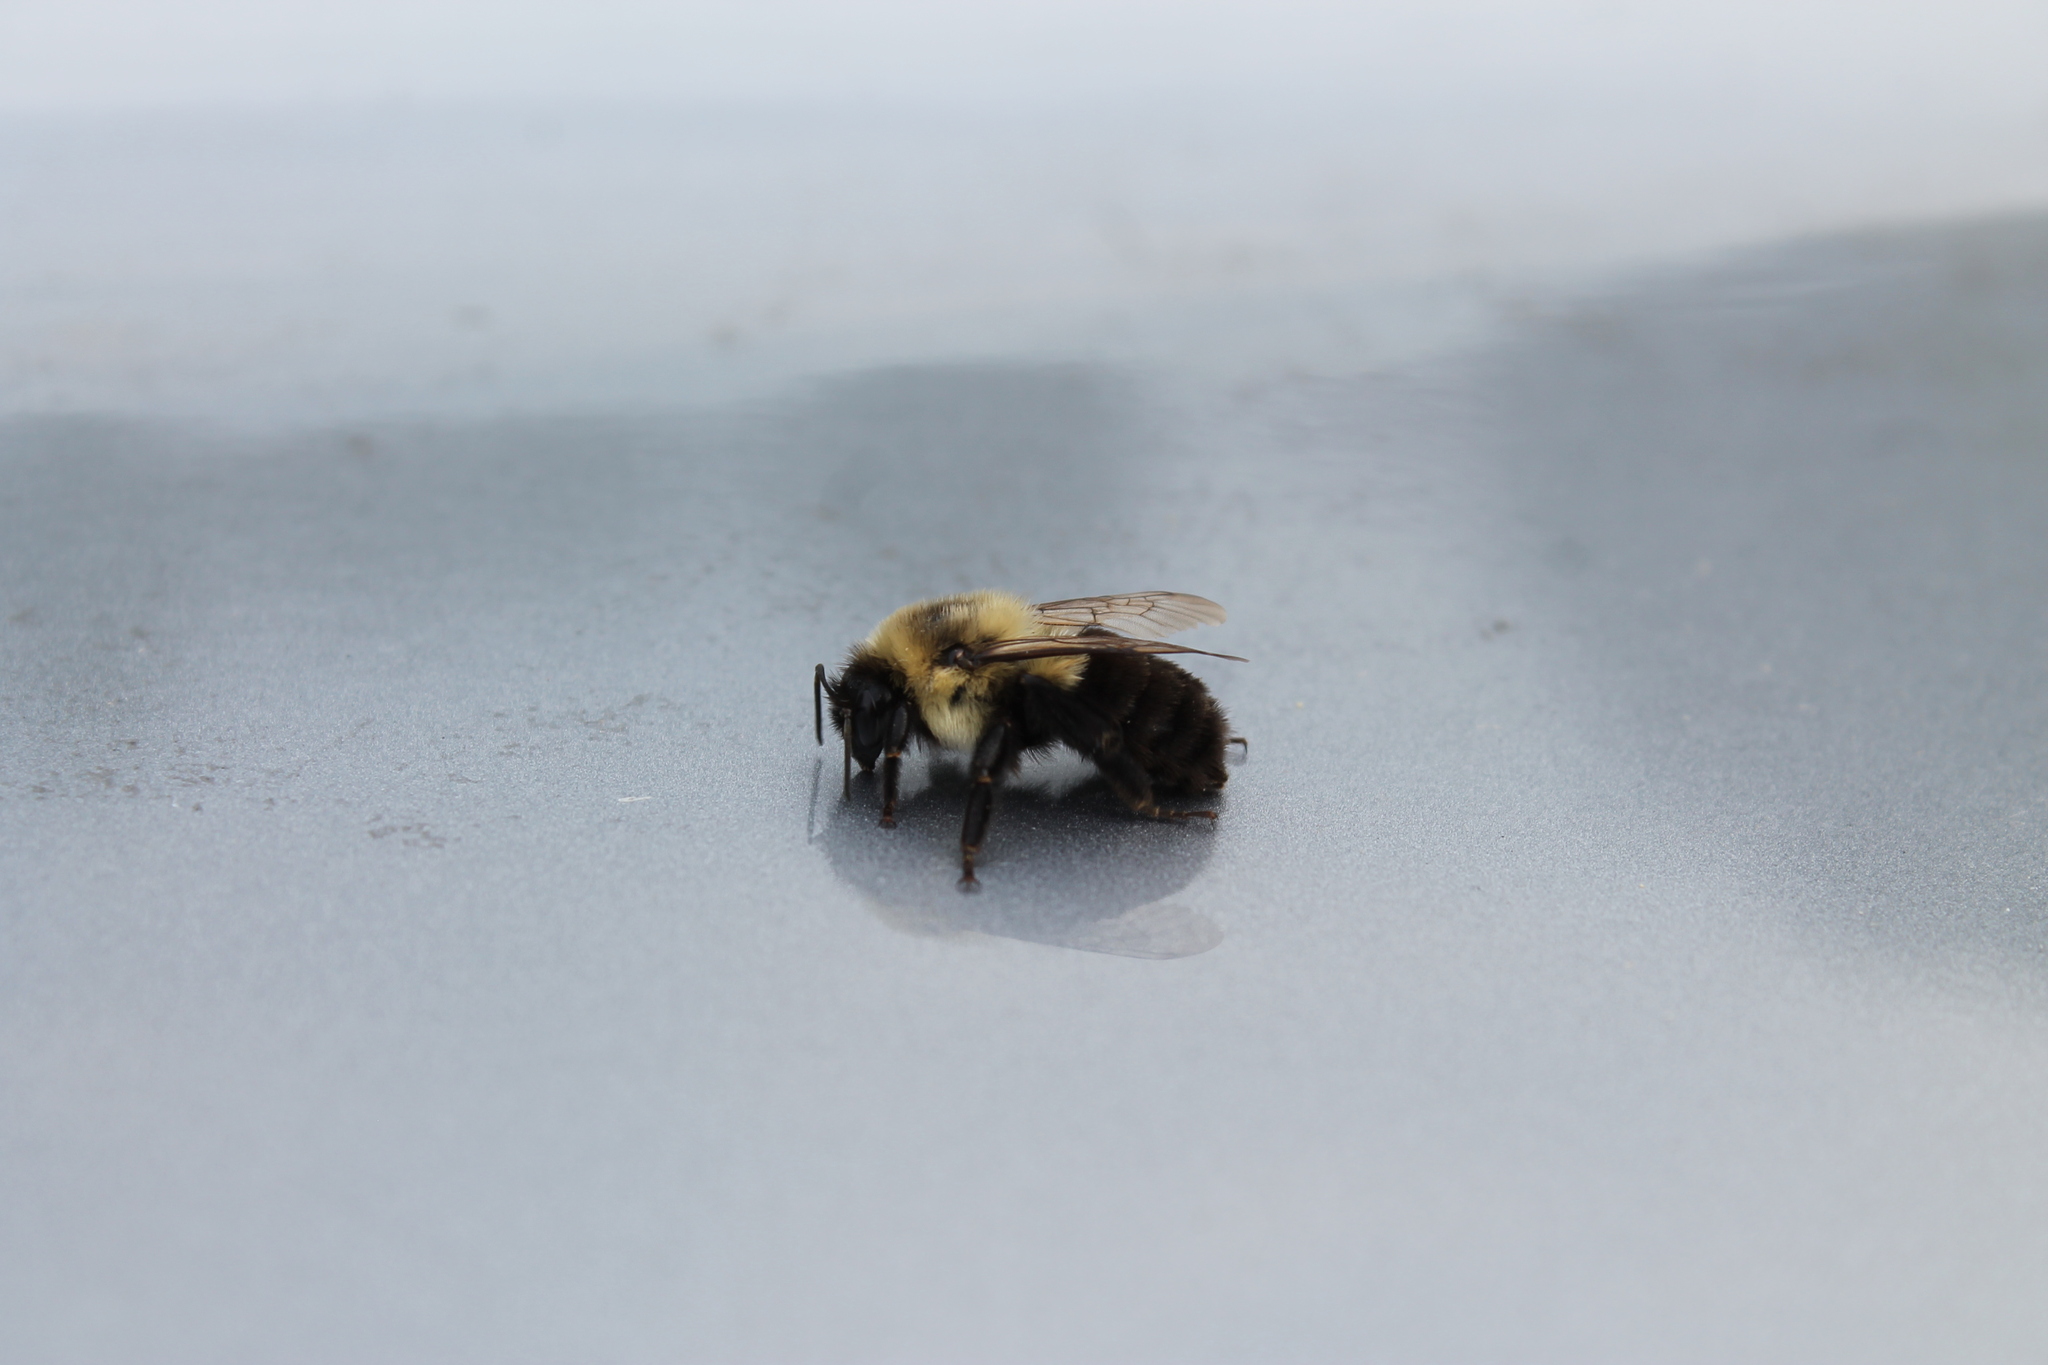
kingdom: Animalia
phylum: Arthropoda
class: Insecta
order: Hymenoptera
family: Apidae
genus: Bombus
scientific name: Bombus impatiens
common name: Common eastern bumble bee
